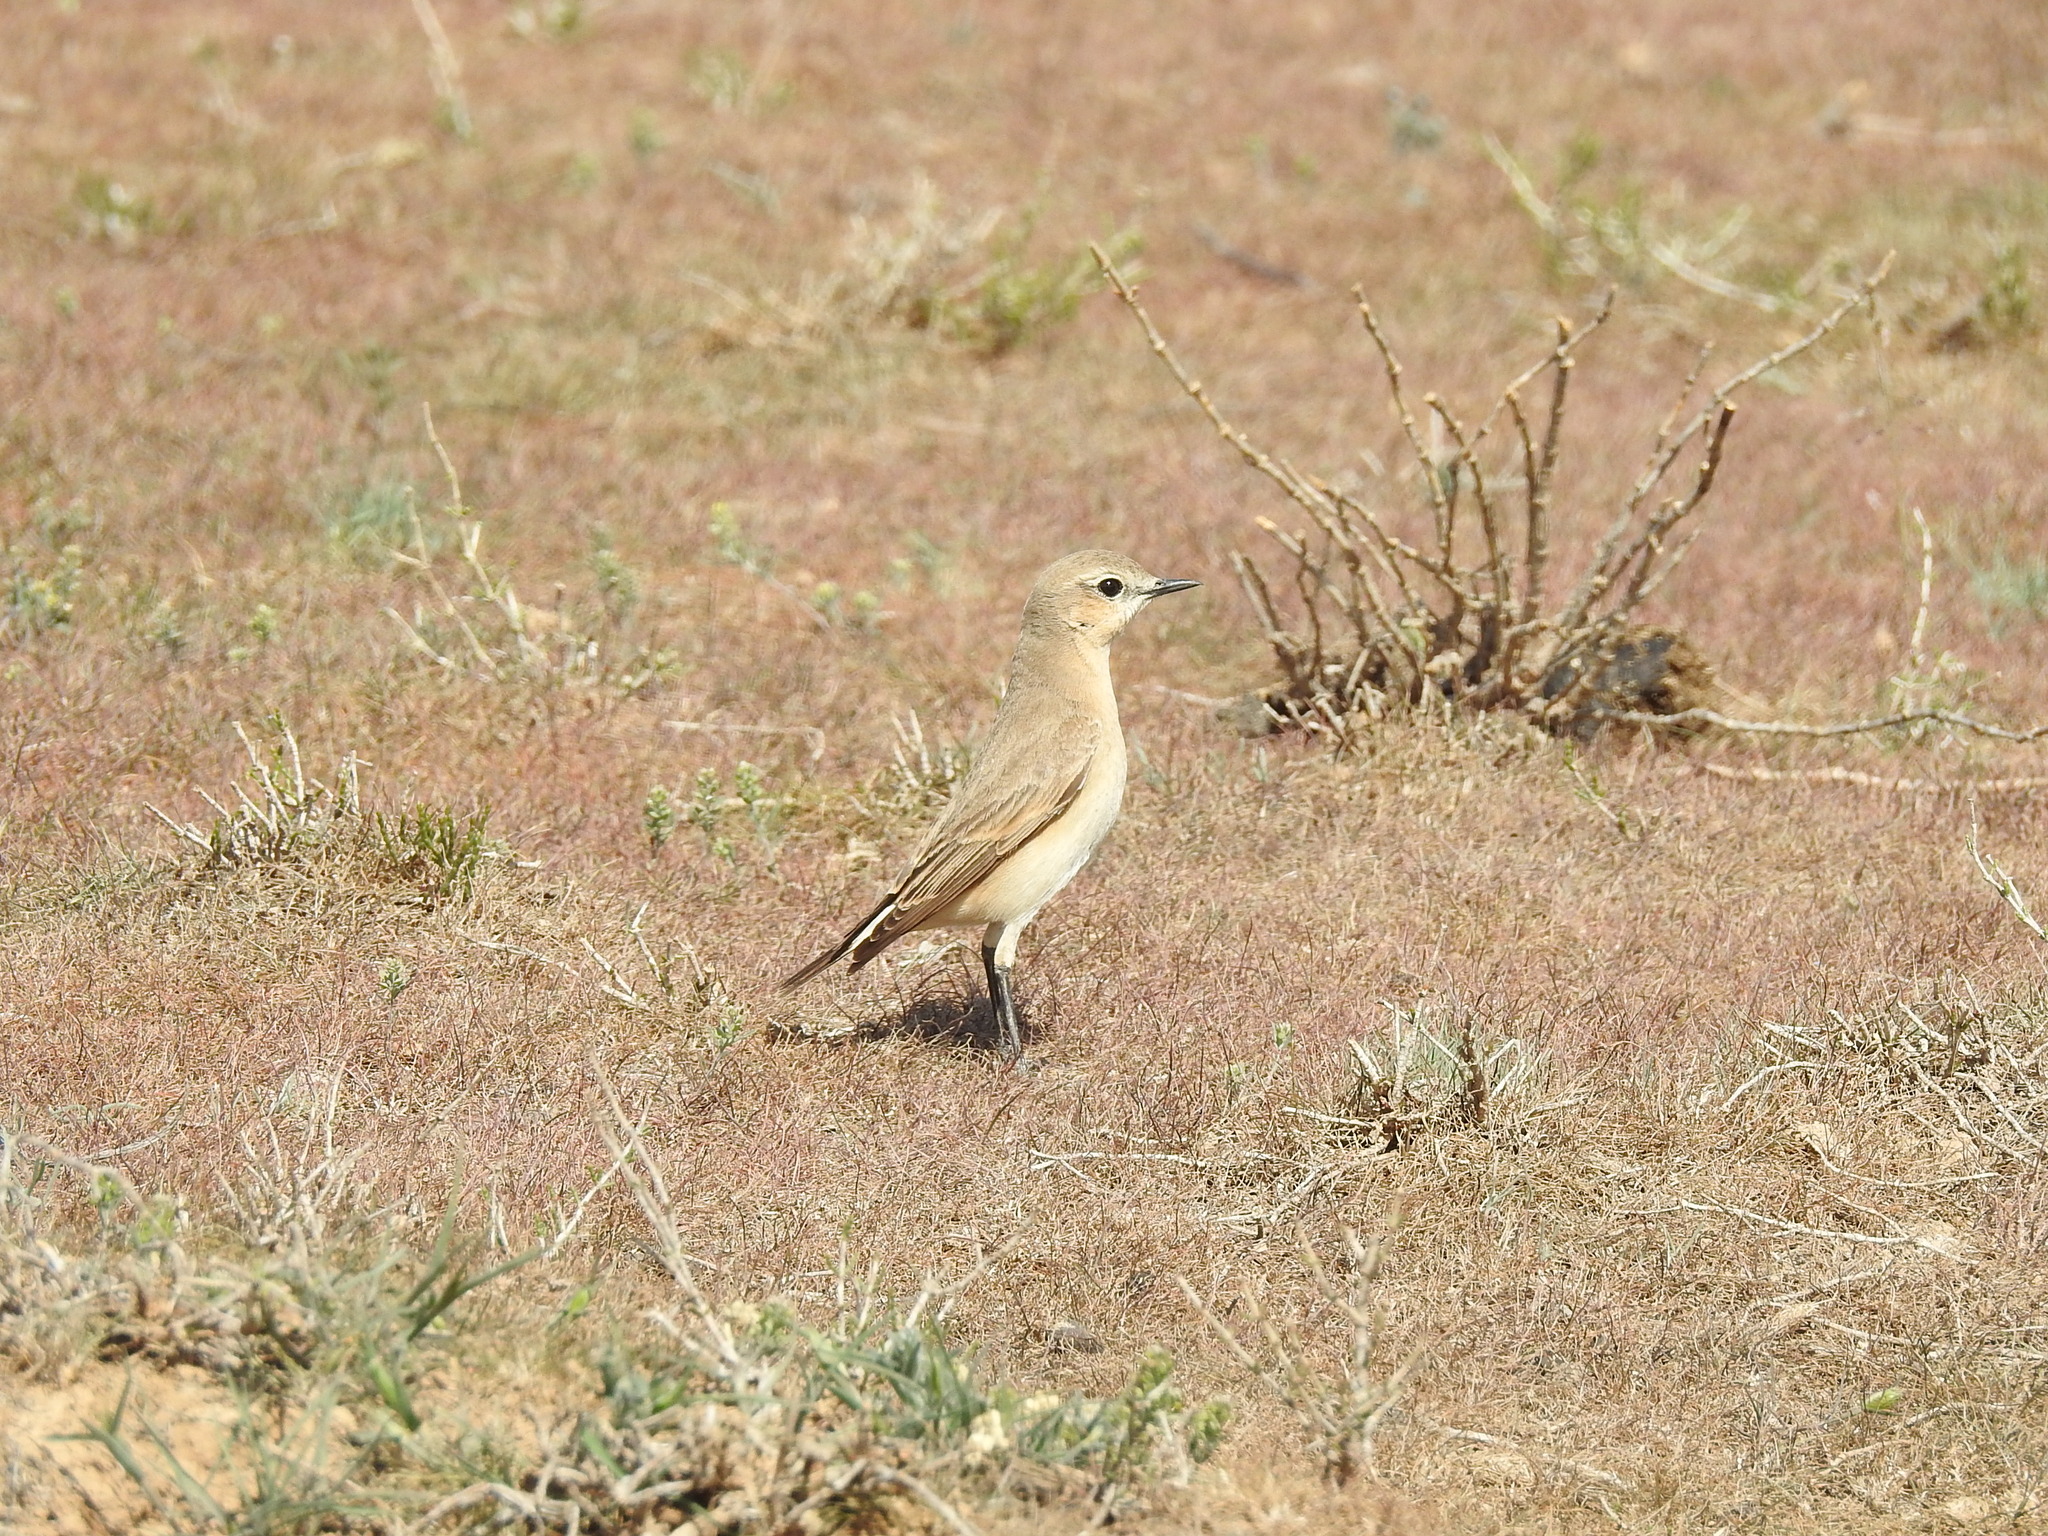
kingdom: Animalia
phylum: Chordata
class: Aves
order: Passeriformes
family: Muscicapidae
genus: Oenanthe
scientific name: Oenanthe isabellina
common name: Isabelline wheatear
